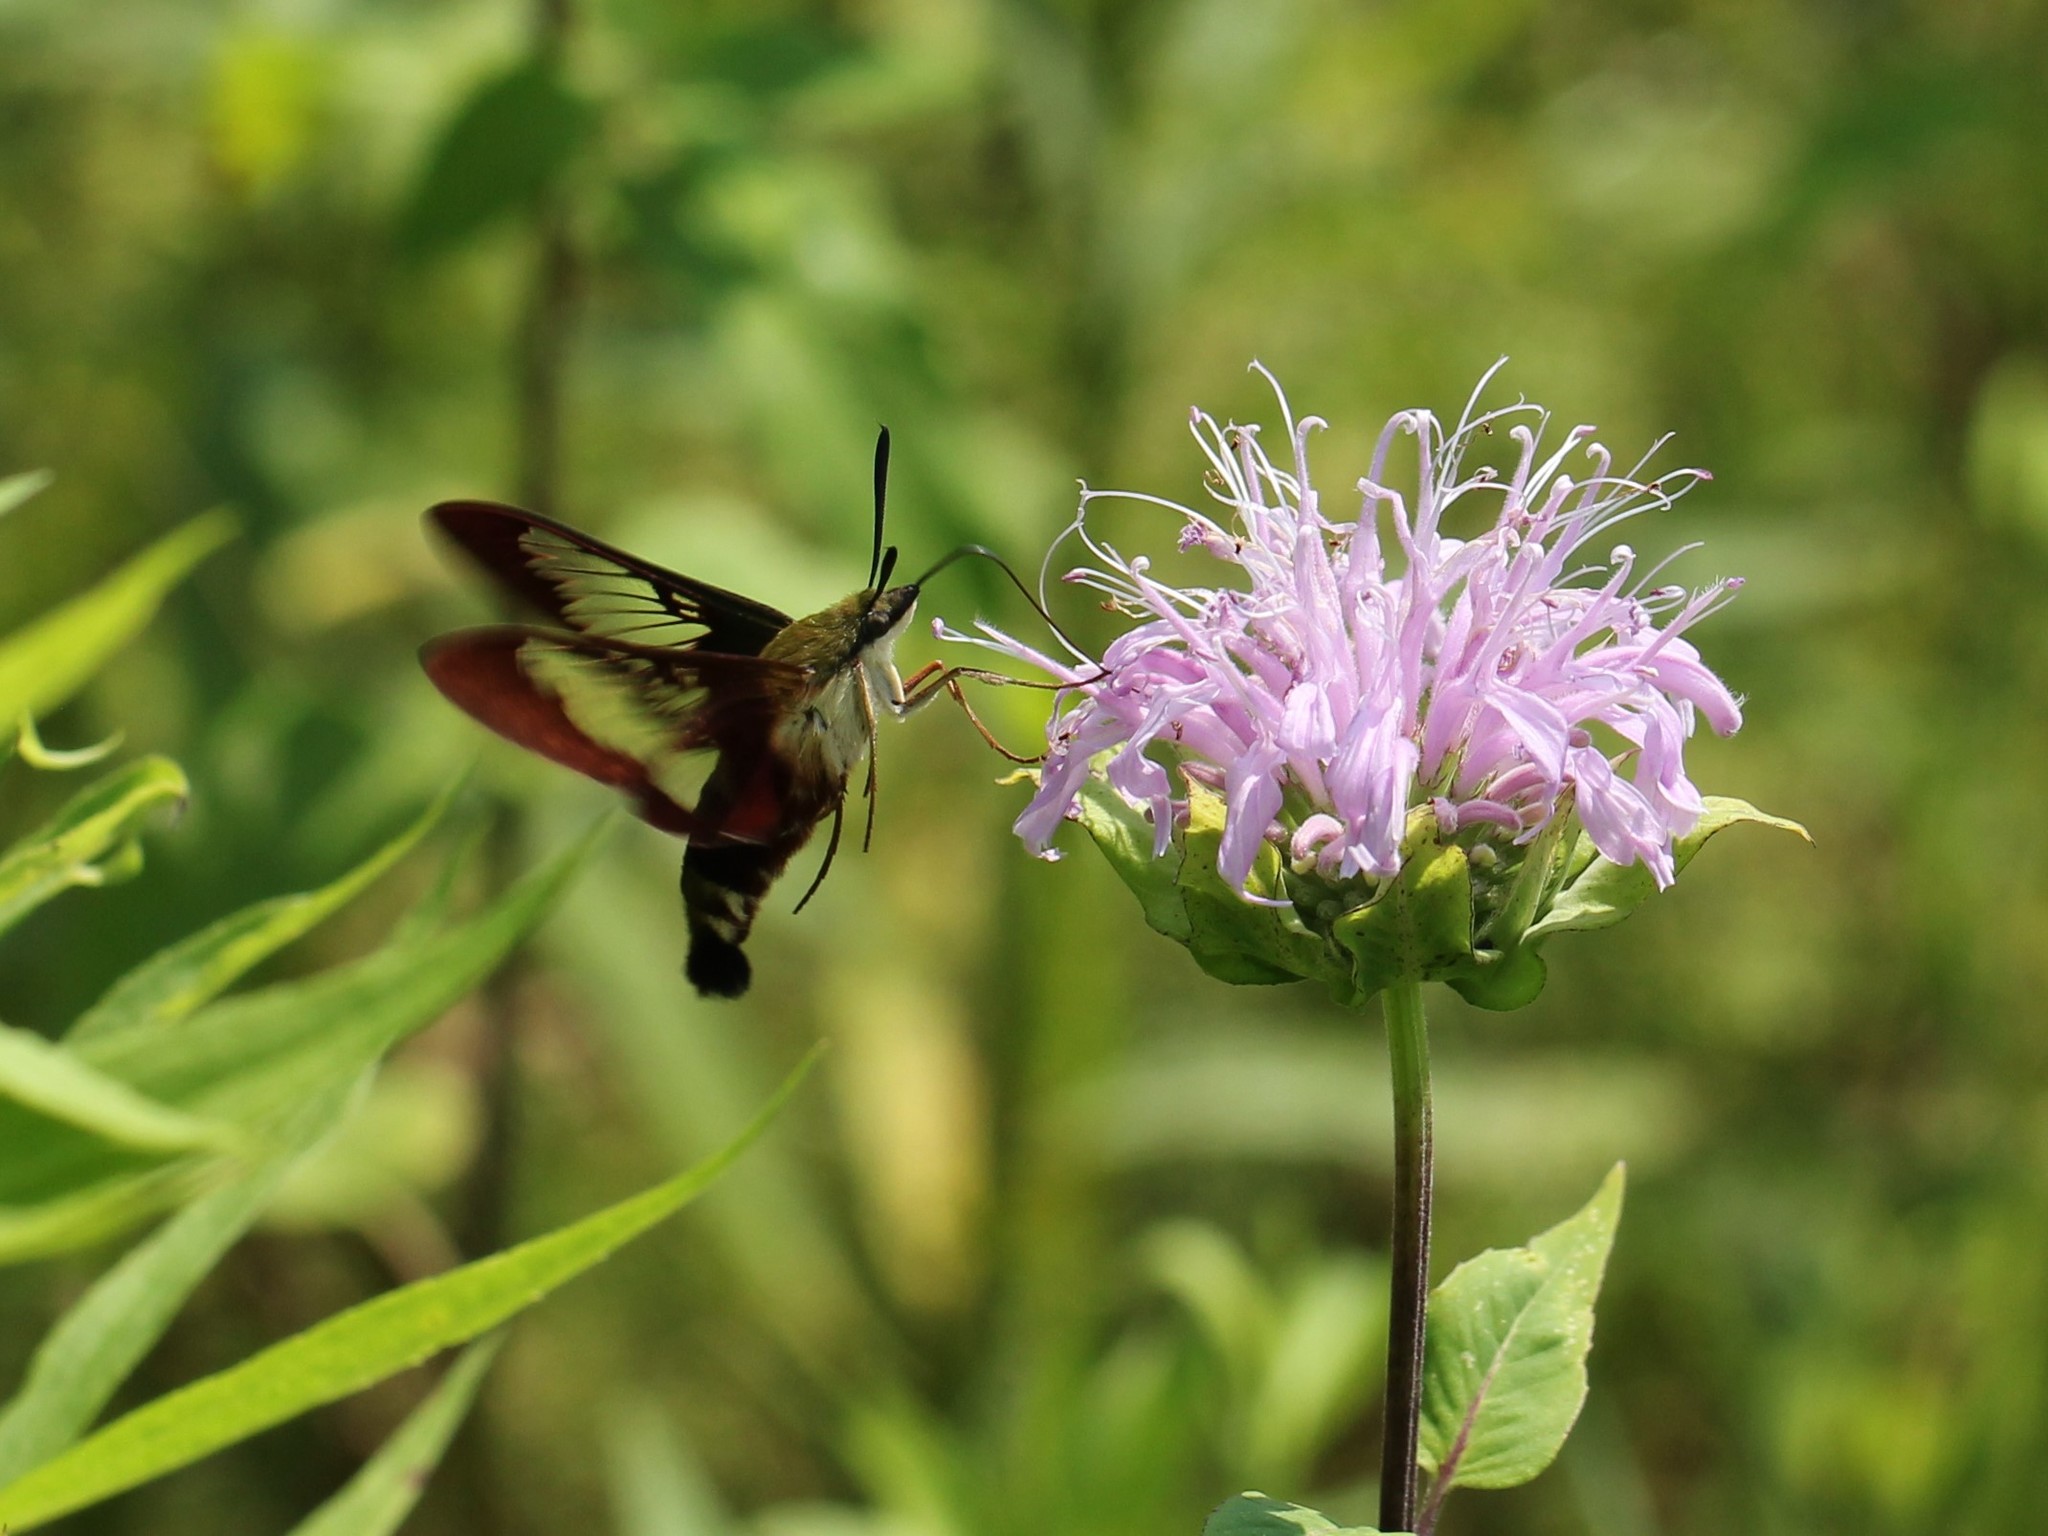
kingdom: Animalia
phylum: Arthropoda
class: Insecta
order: Lepidoptera
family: Sphingidae
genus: Hemaris
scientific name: Hemaris thysbe
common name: Common clear-wing
